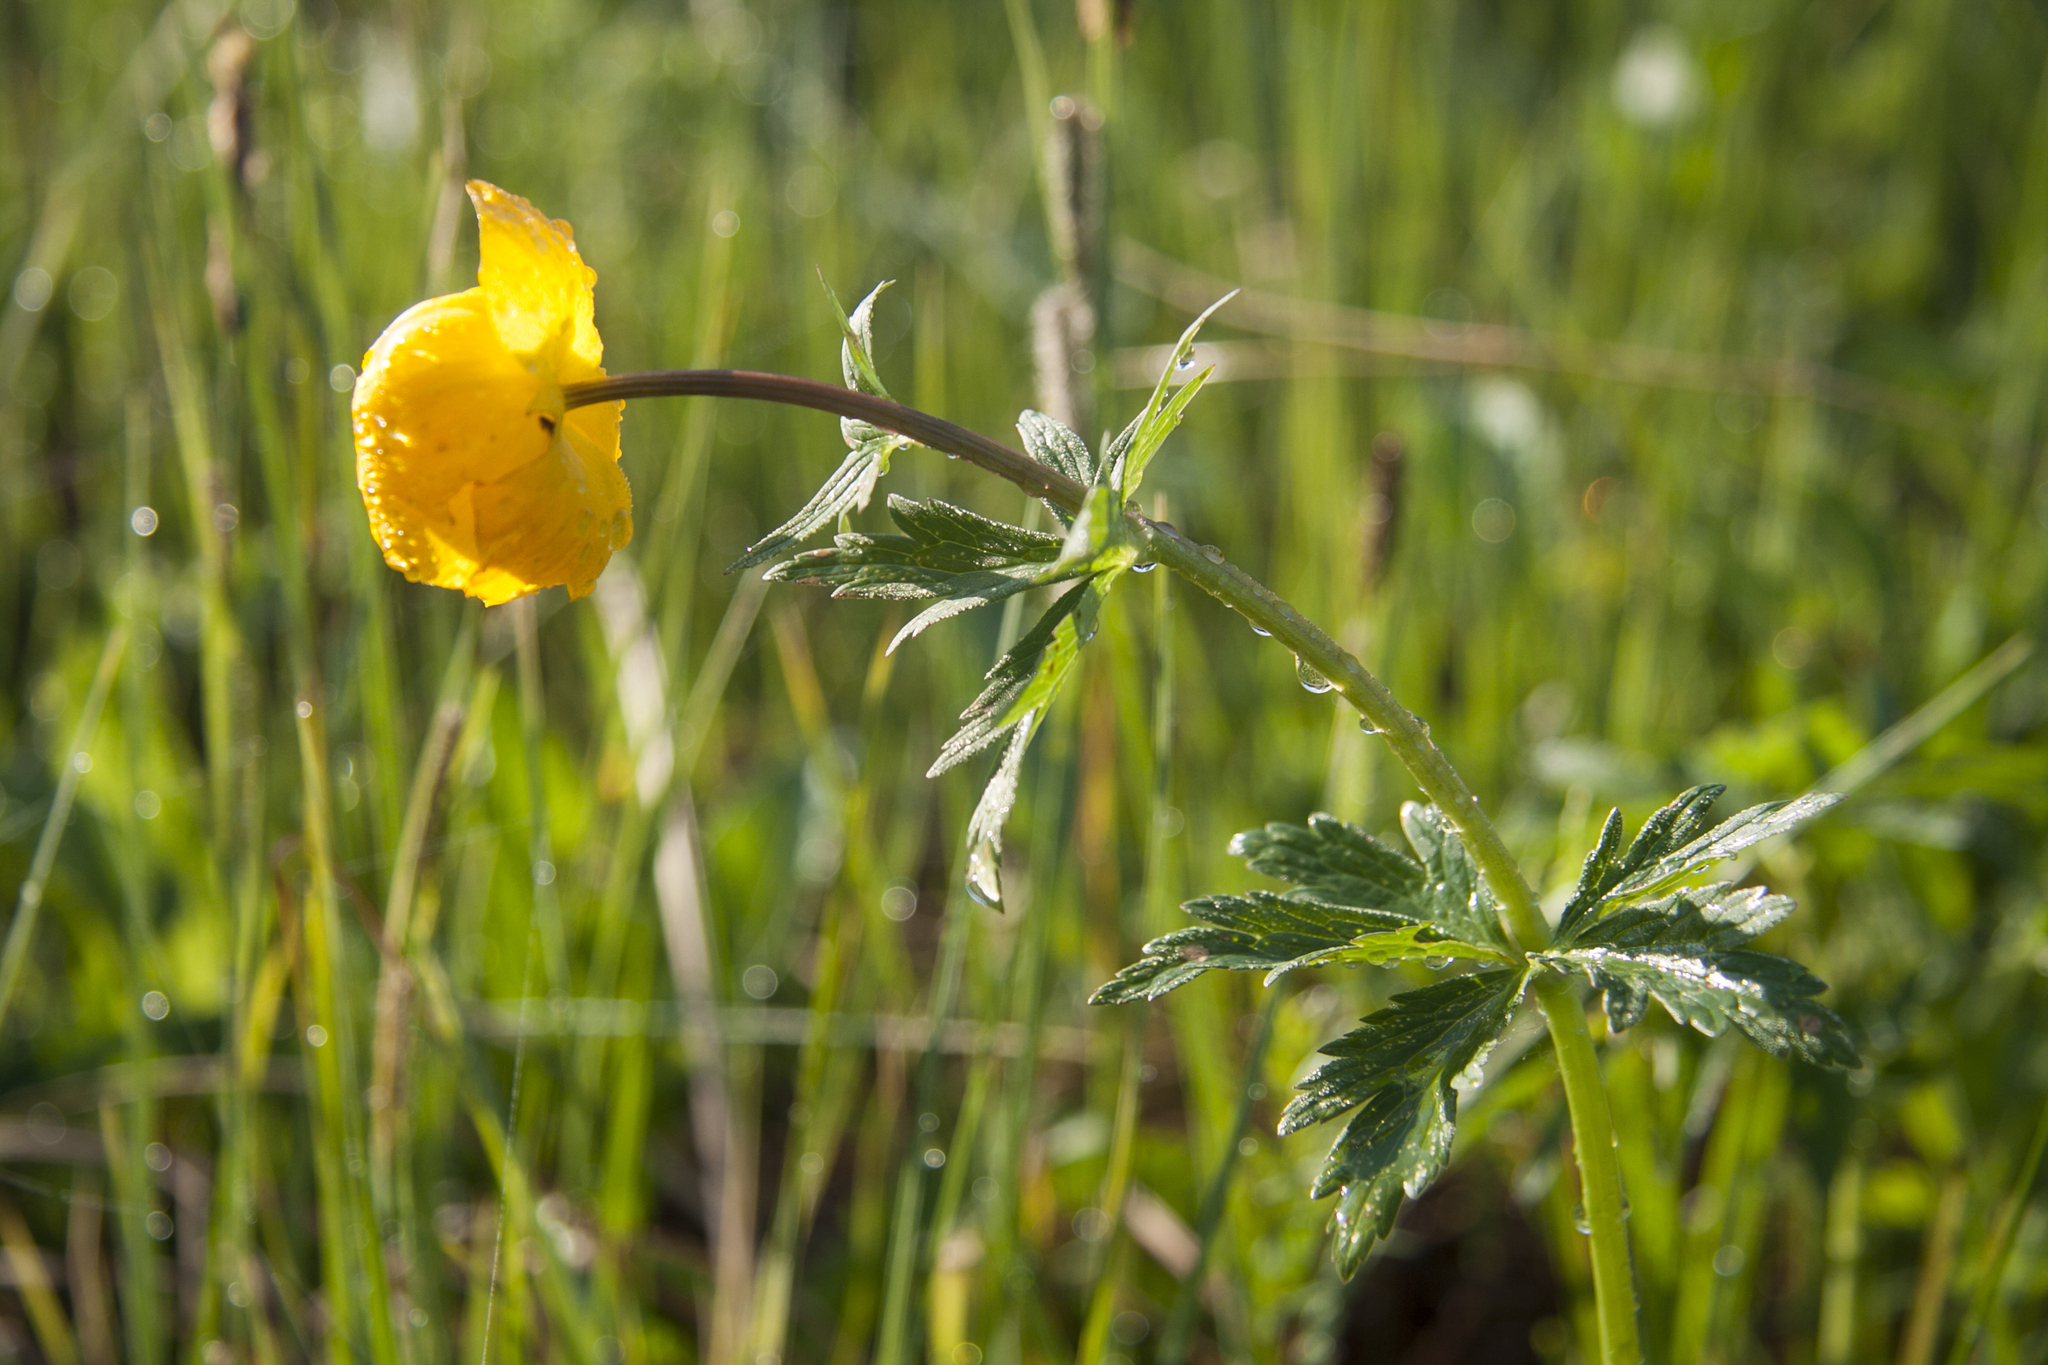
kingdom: Plantae
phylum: Tracheophyta
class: Magnoliopsida
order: Ranunculales
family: Ranunculaceae
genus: Trollius
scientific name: Trollius europaeus
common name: European globeflower
